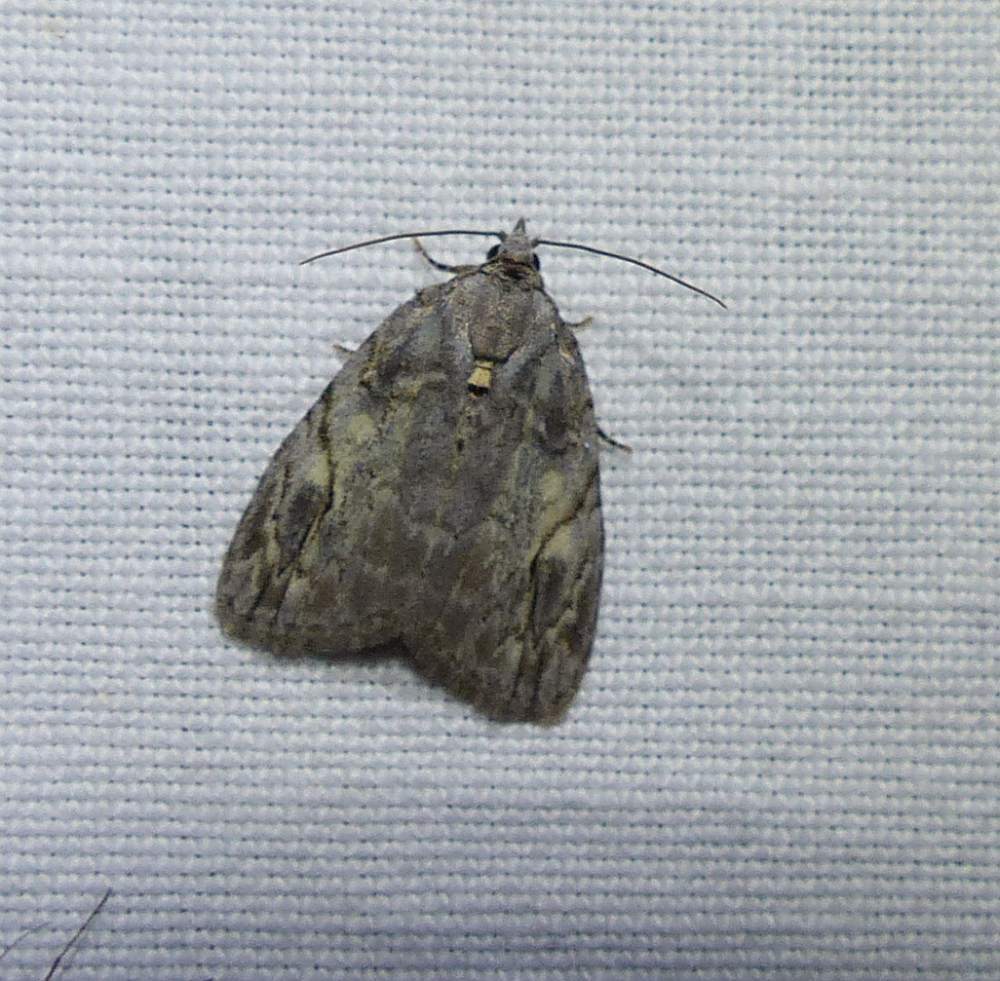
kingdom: Animalia
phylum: Arthropoda
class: Insecta
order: Lepidoptera
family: Noctuidae
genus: Balsa
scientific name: Balsa labecula
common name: White-blotched balsa moth
